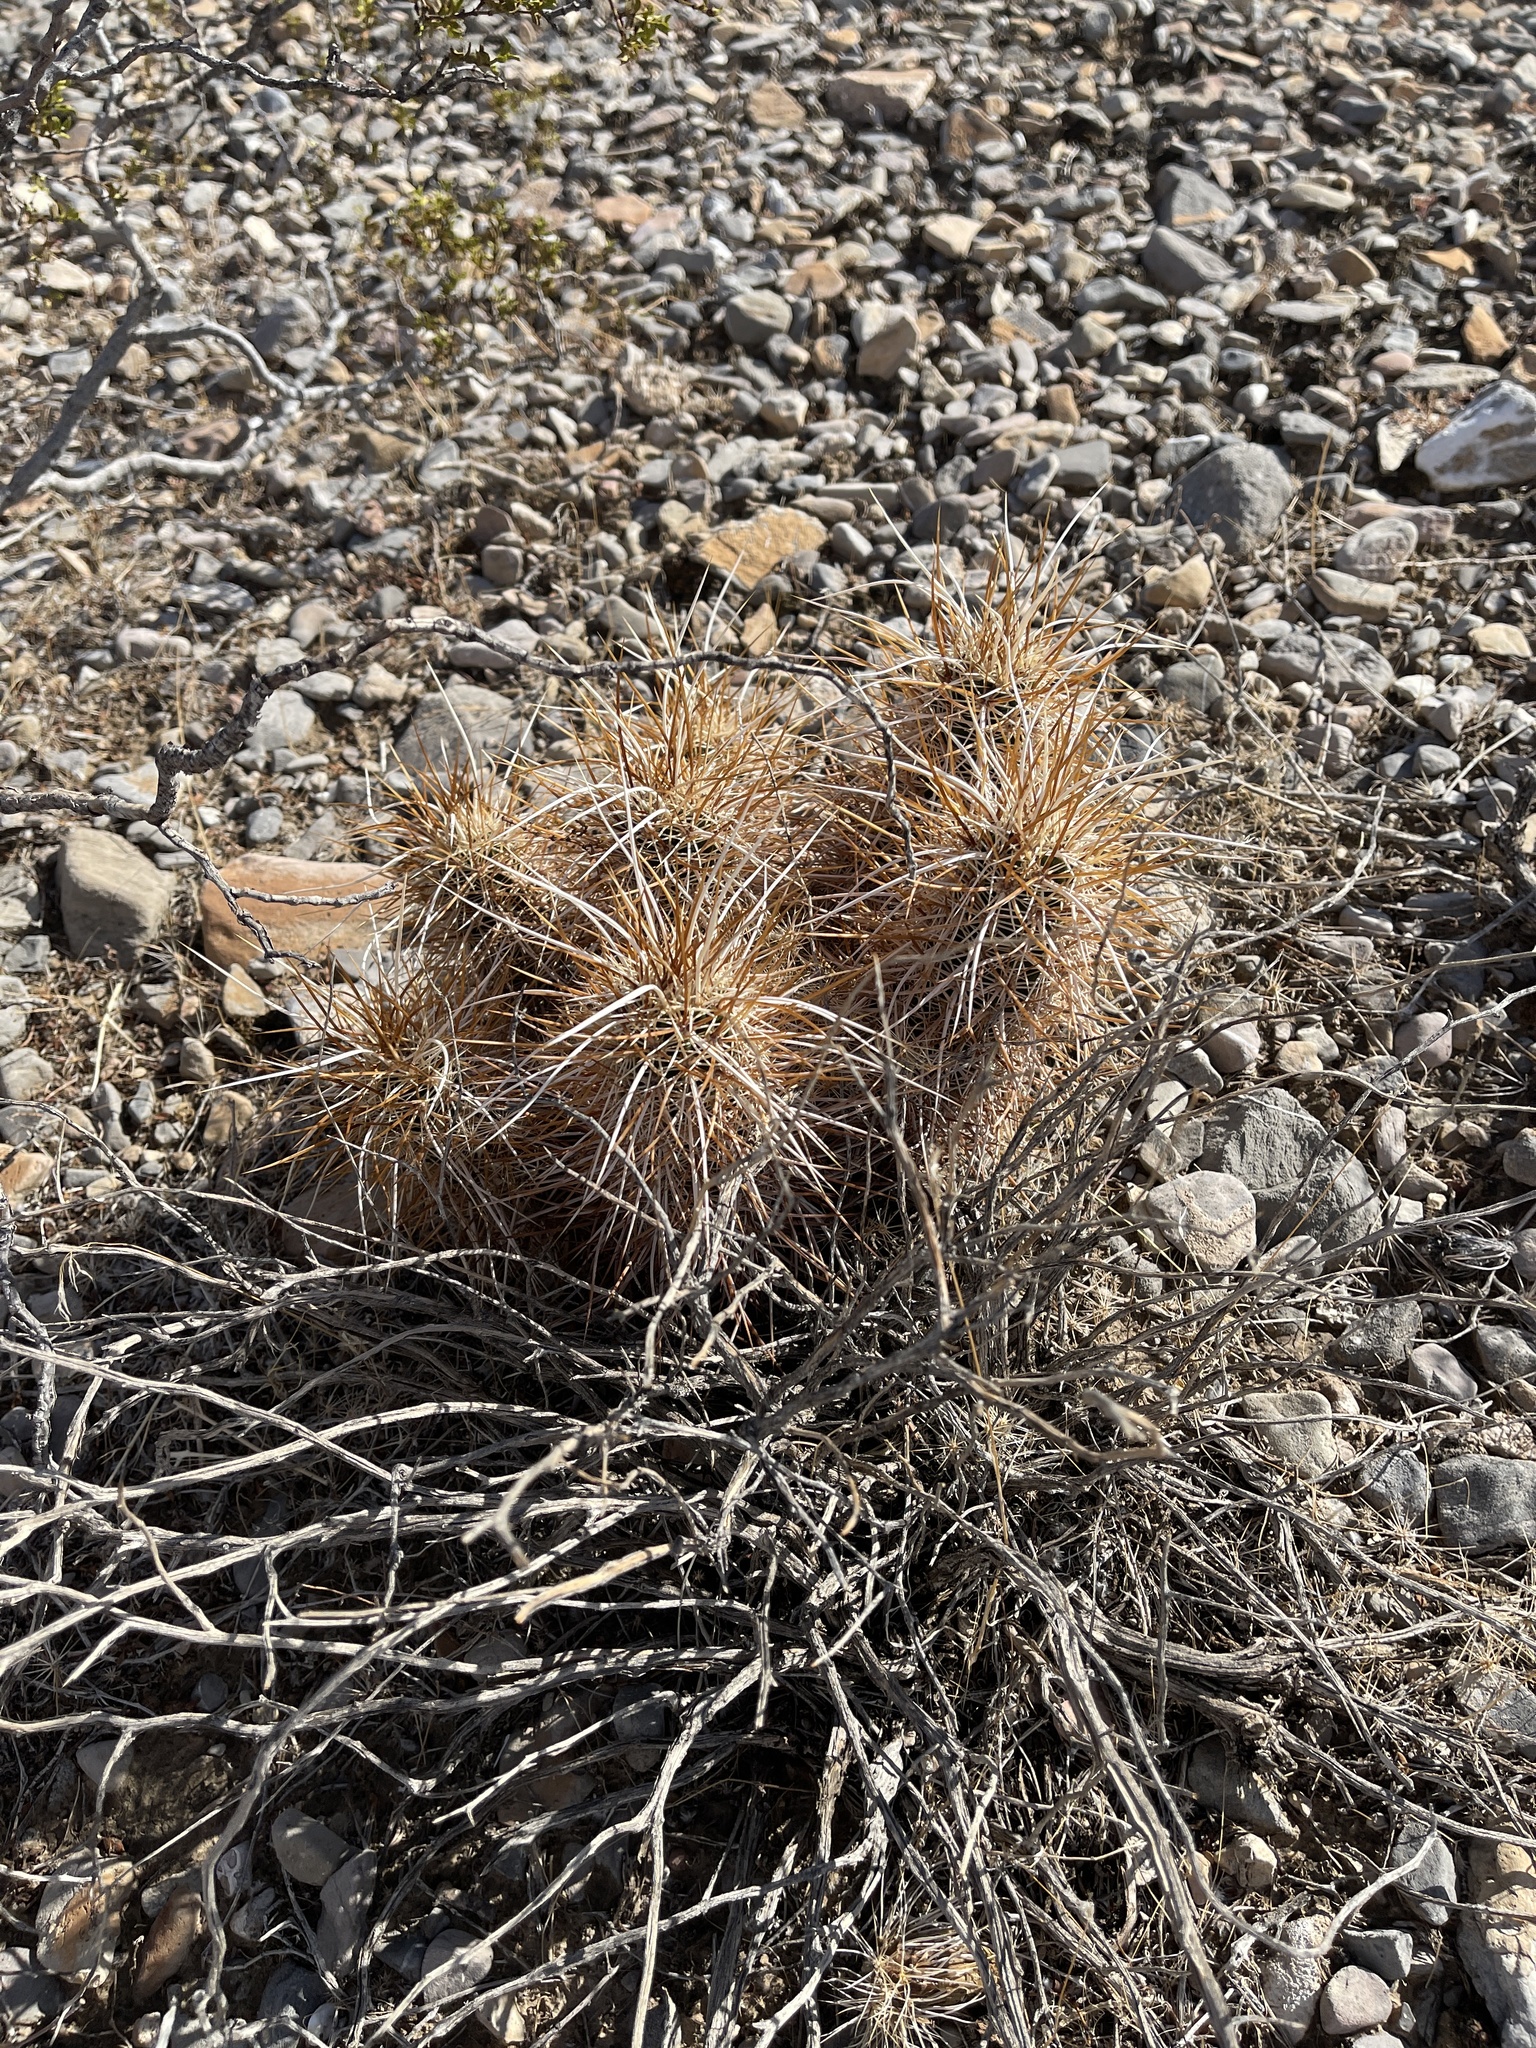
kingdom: Plantae
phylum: Tracheophyta
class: Magnoliopsida
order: Caryophyllales
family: Cactaceae
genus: Echinocereus
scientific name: Echinocereus engelmannii
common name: Engelmann's hedgehog cactus
